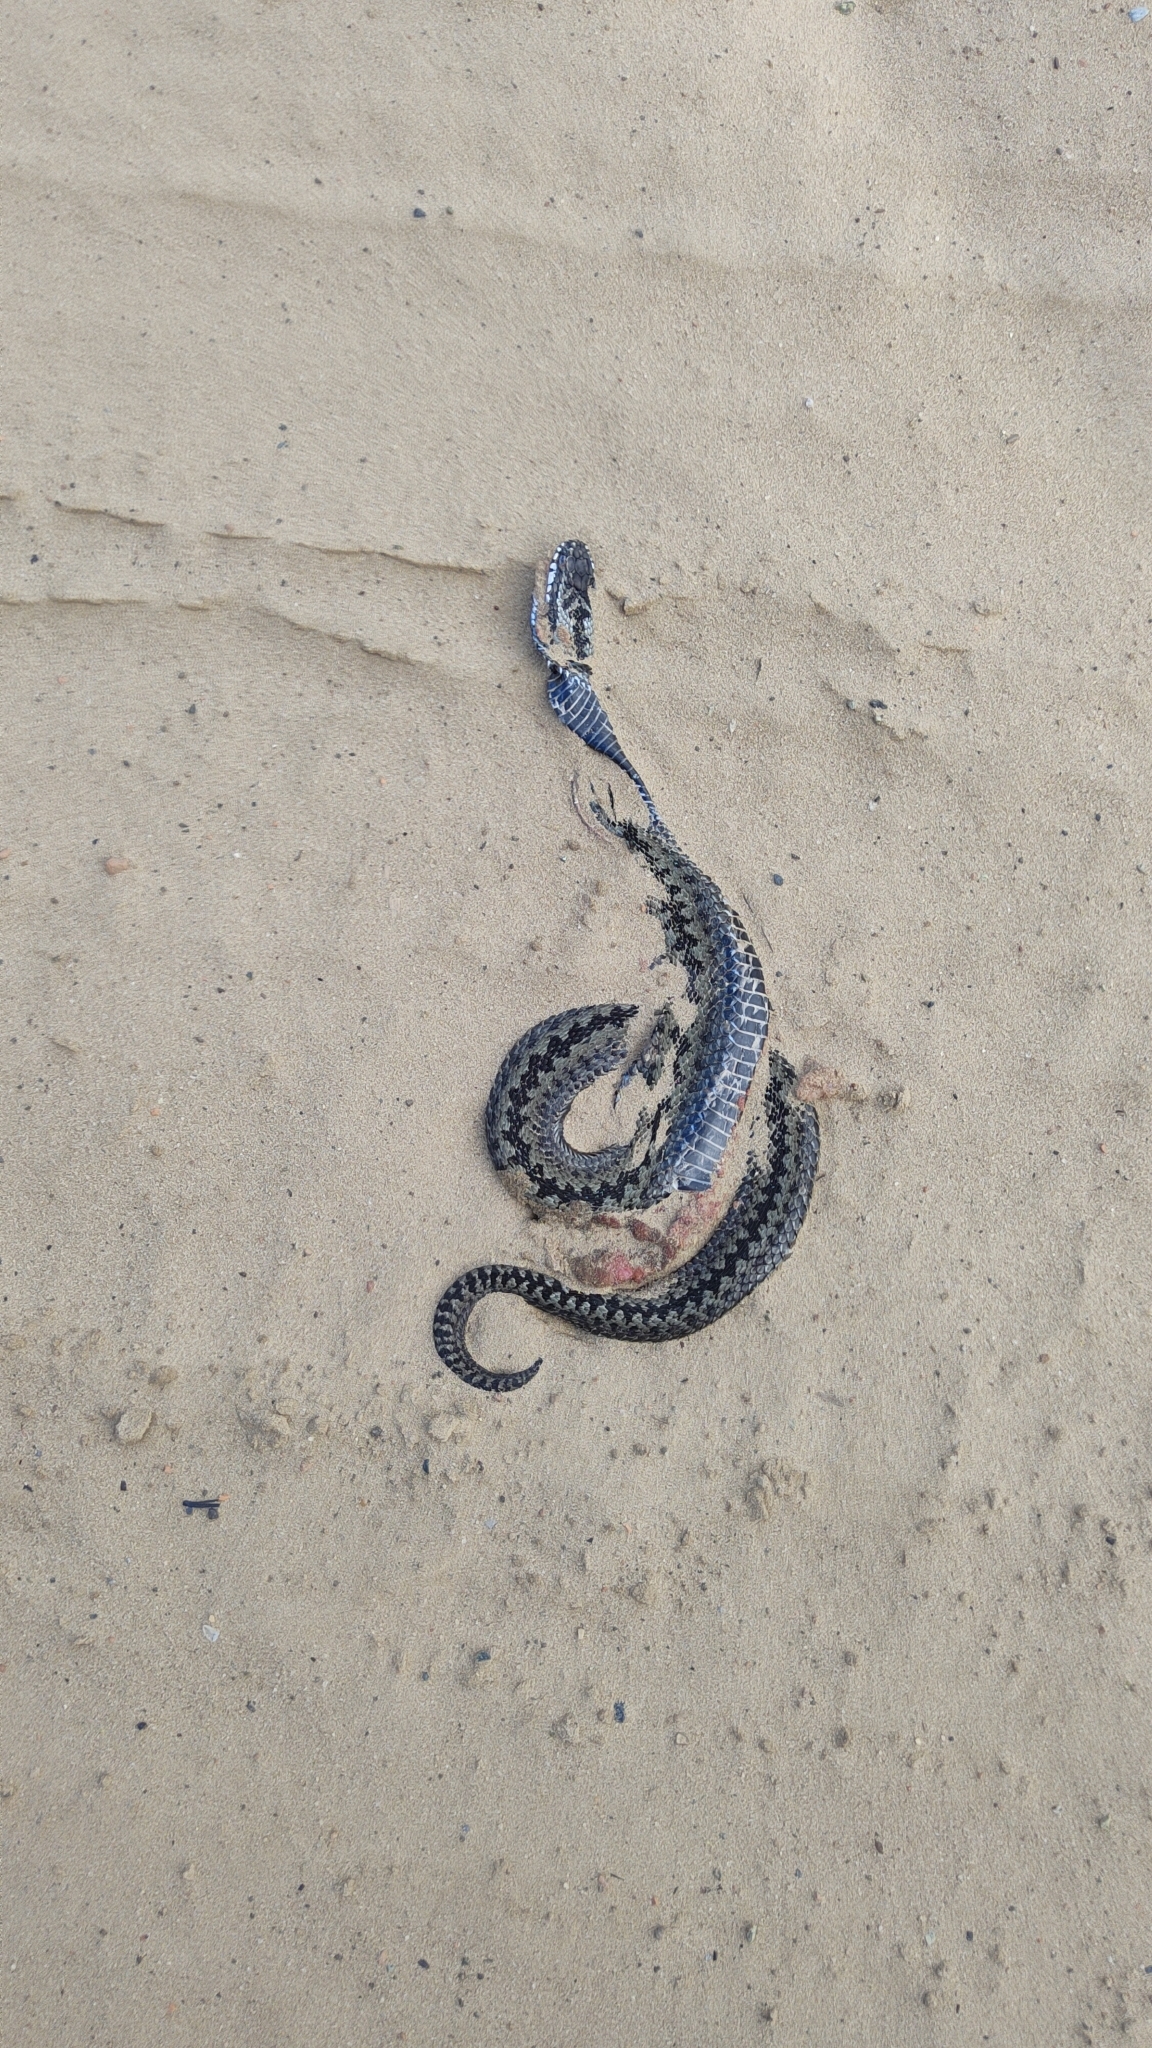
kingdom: Animalia
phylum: Chordata
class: Squamata
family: Viperidae
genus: Vipera
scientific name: Vipera berus
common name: Adder
